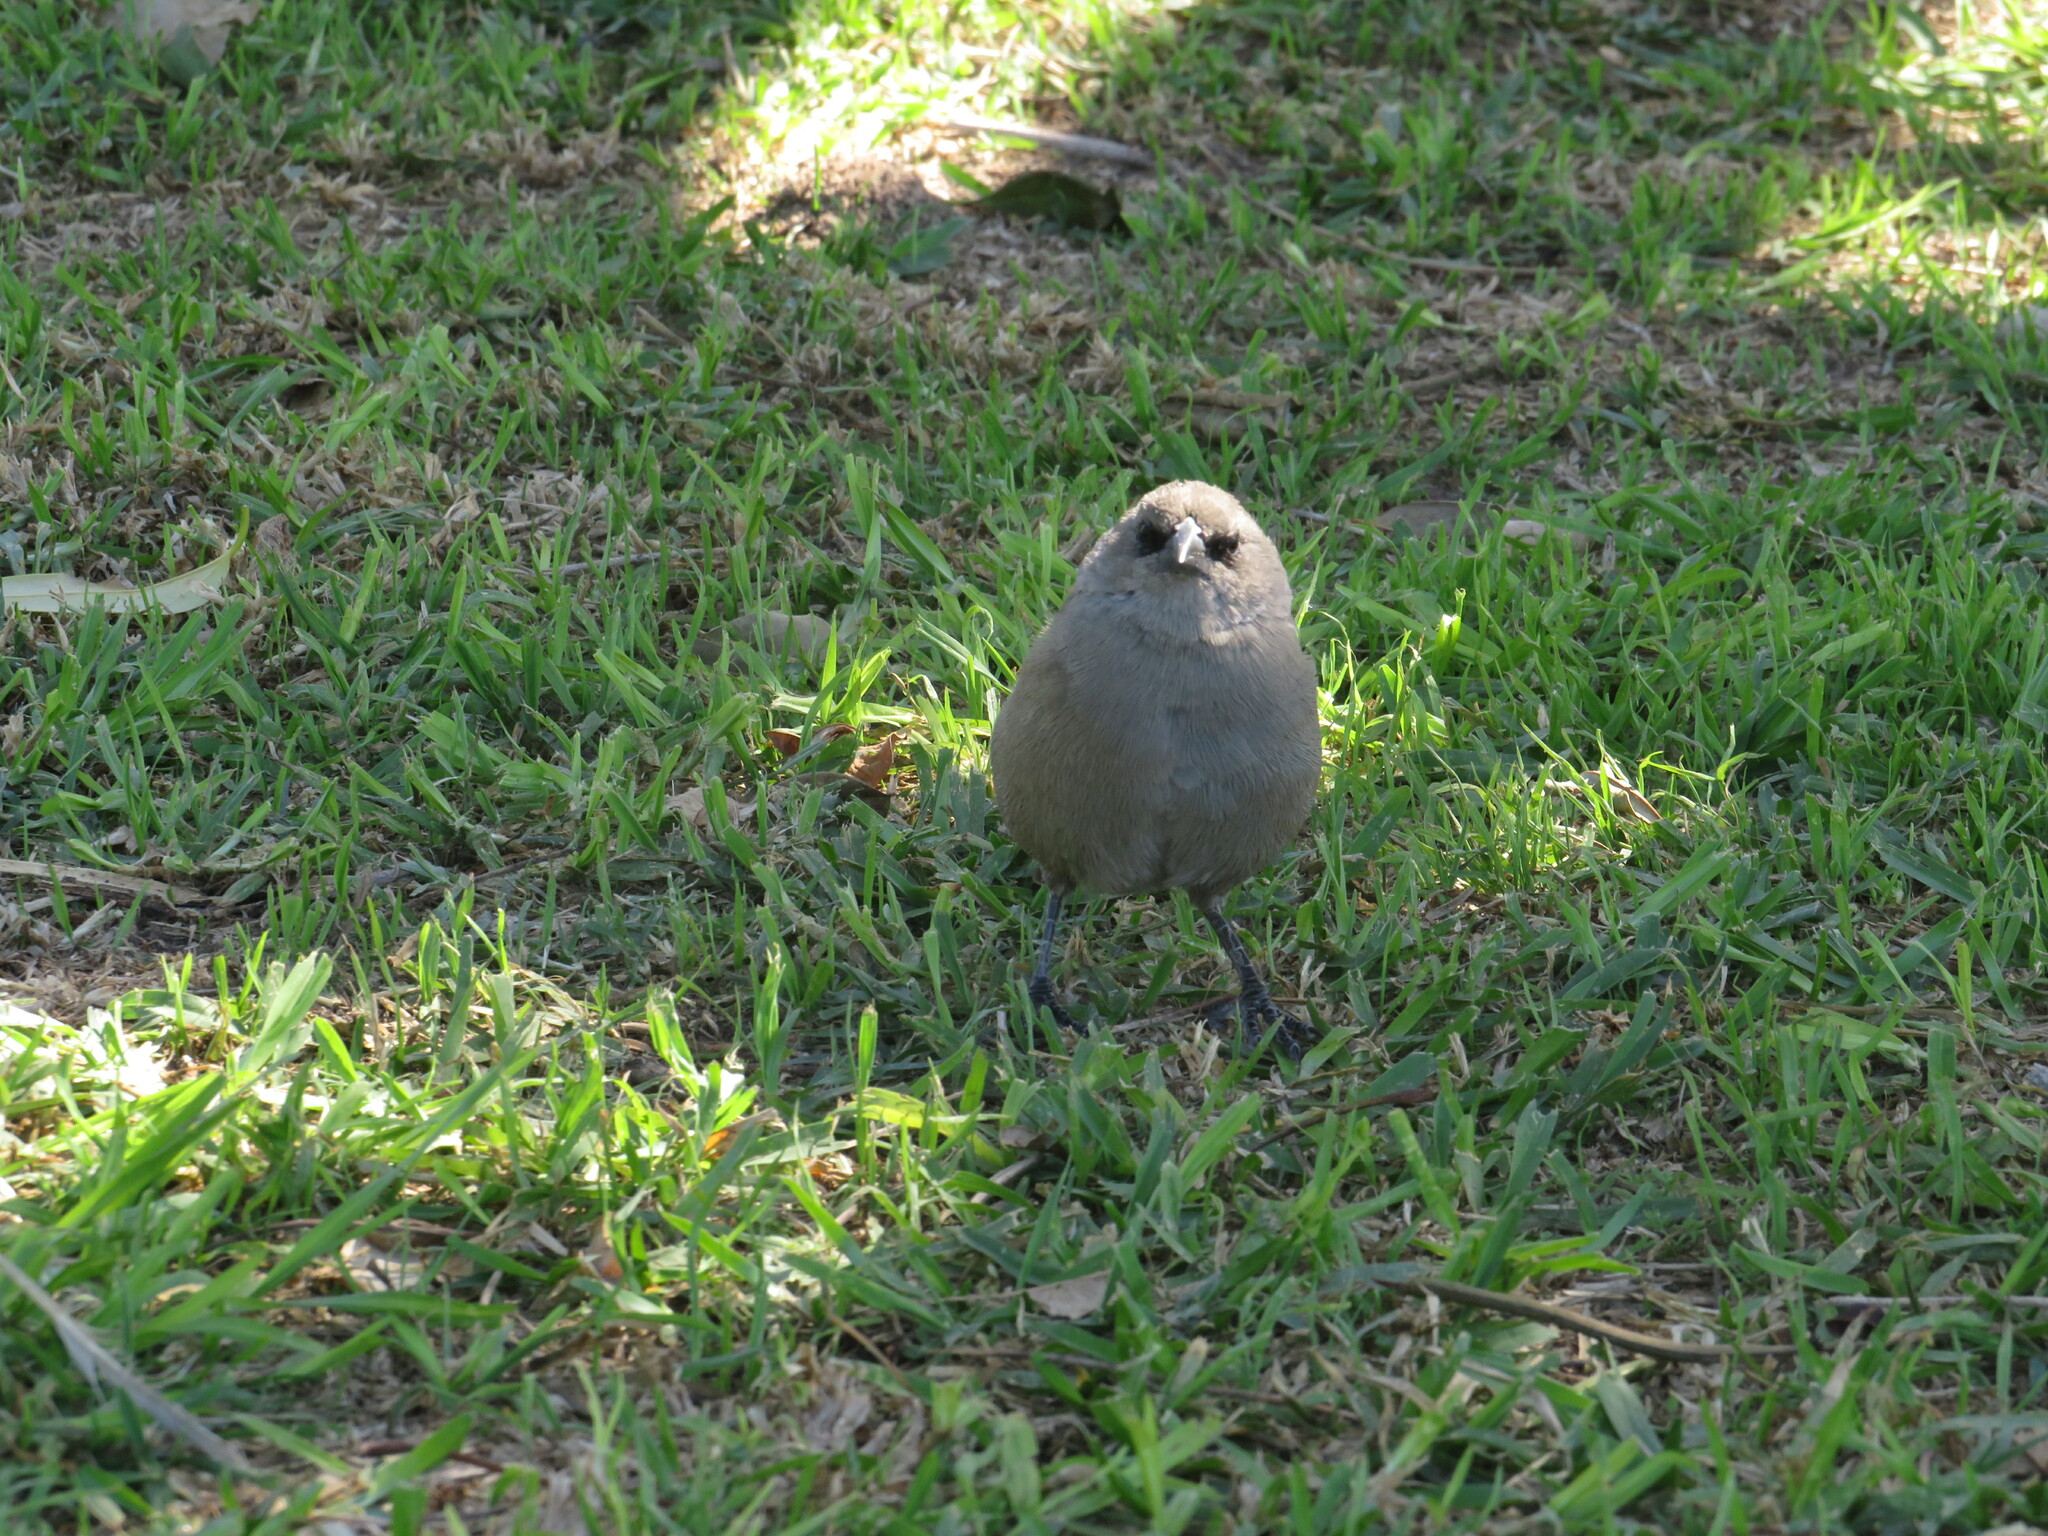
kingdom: Animalia
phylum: Chordata
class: Aves
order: Passeriformes
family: Icteridae
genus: Agelaioides
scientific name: Agelaioides badius
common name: Baywing
